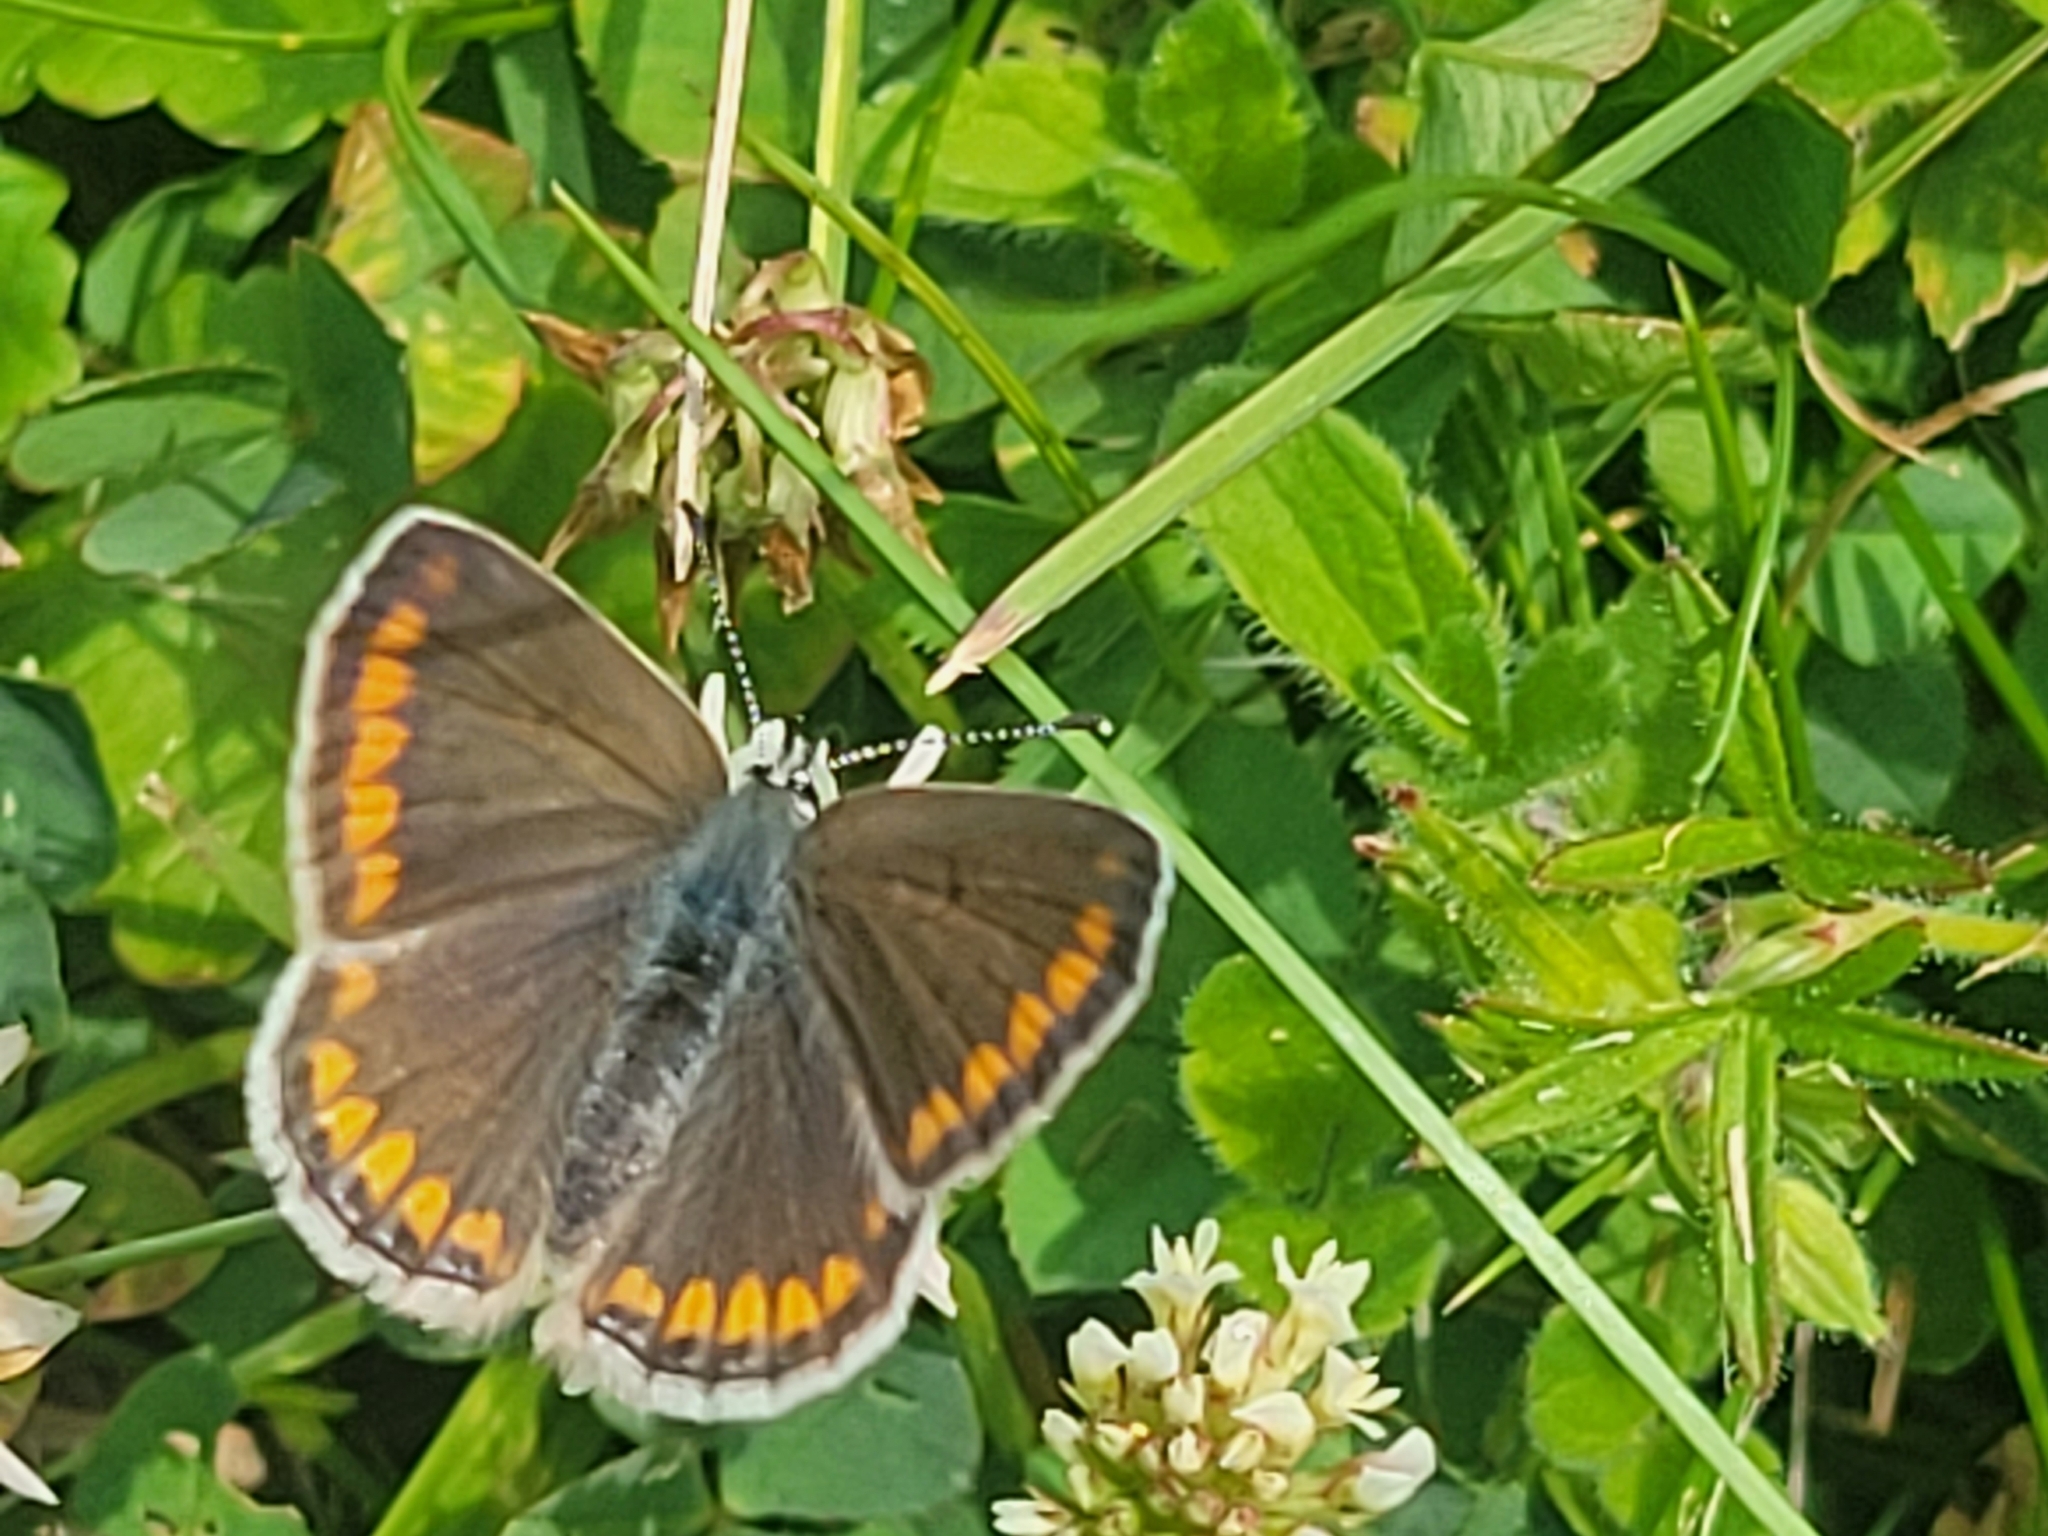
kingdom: Animalia
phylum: Arthropoda
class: Insecta
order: Lepidoptera
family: Lycaenidae
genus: Aricia
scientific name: Aricia agestis
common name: Brown argus
